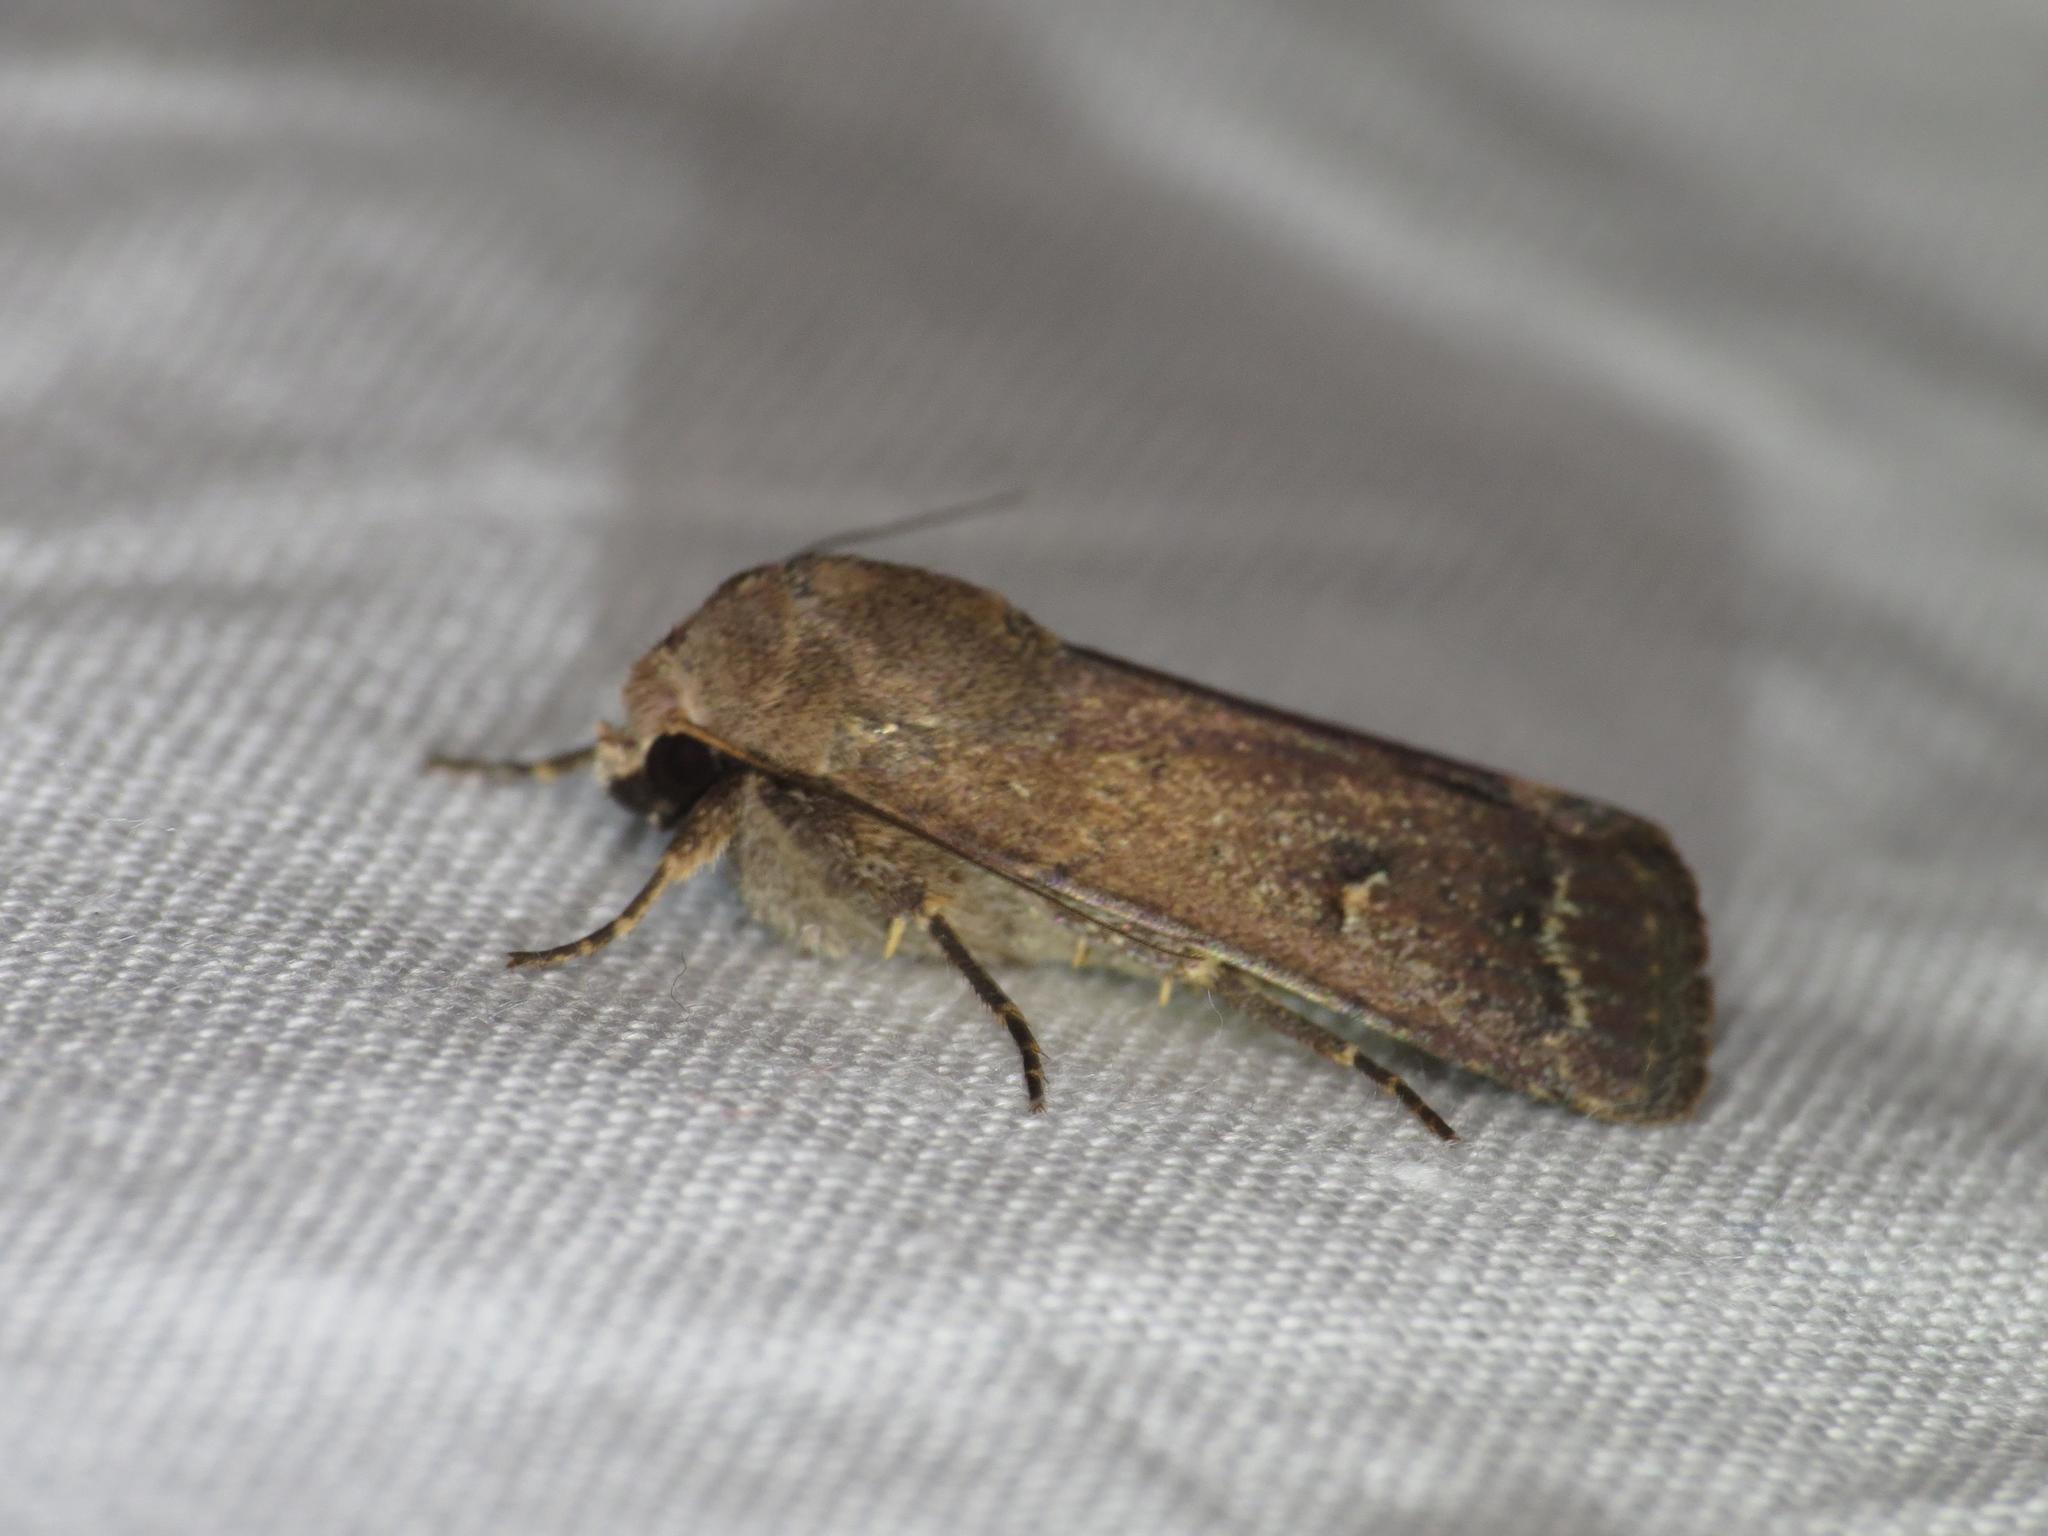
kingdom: Animalia
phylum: Arthropoda
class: Insecta
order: Lepidoptera
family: Noctuidae
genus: Proteuxoa
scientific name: Proteuxoa hypochalchis
